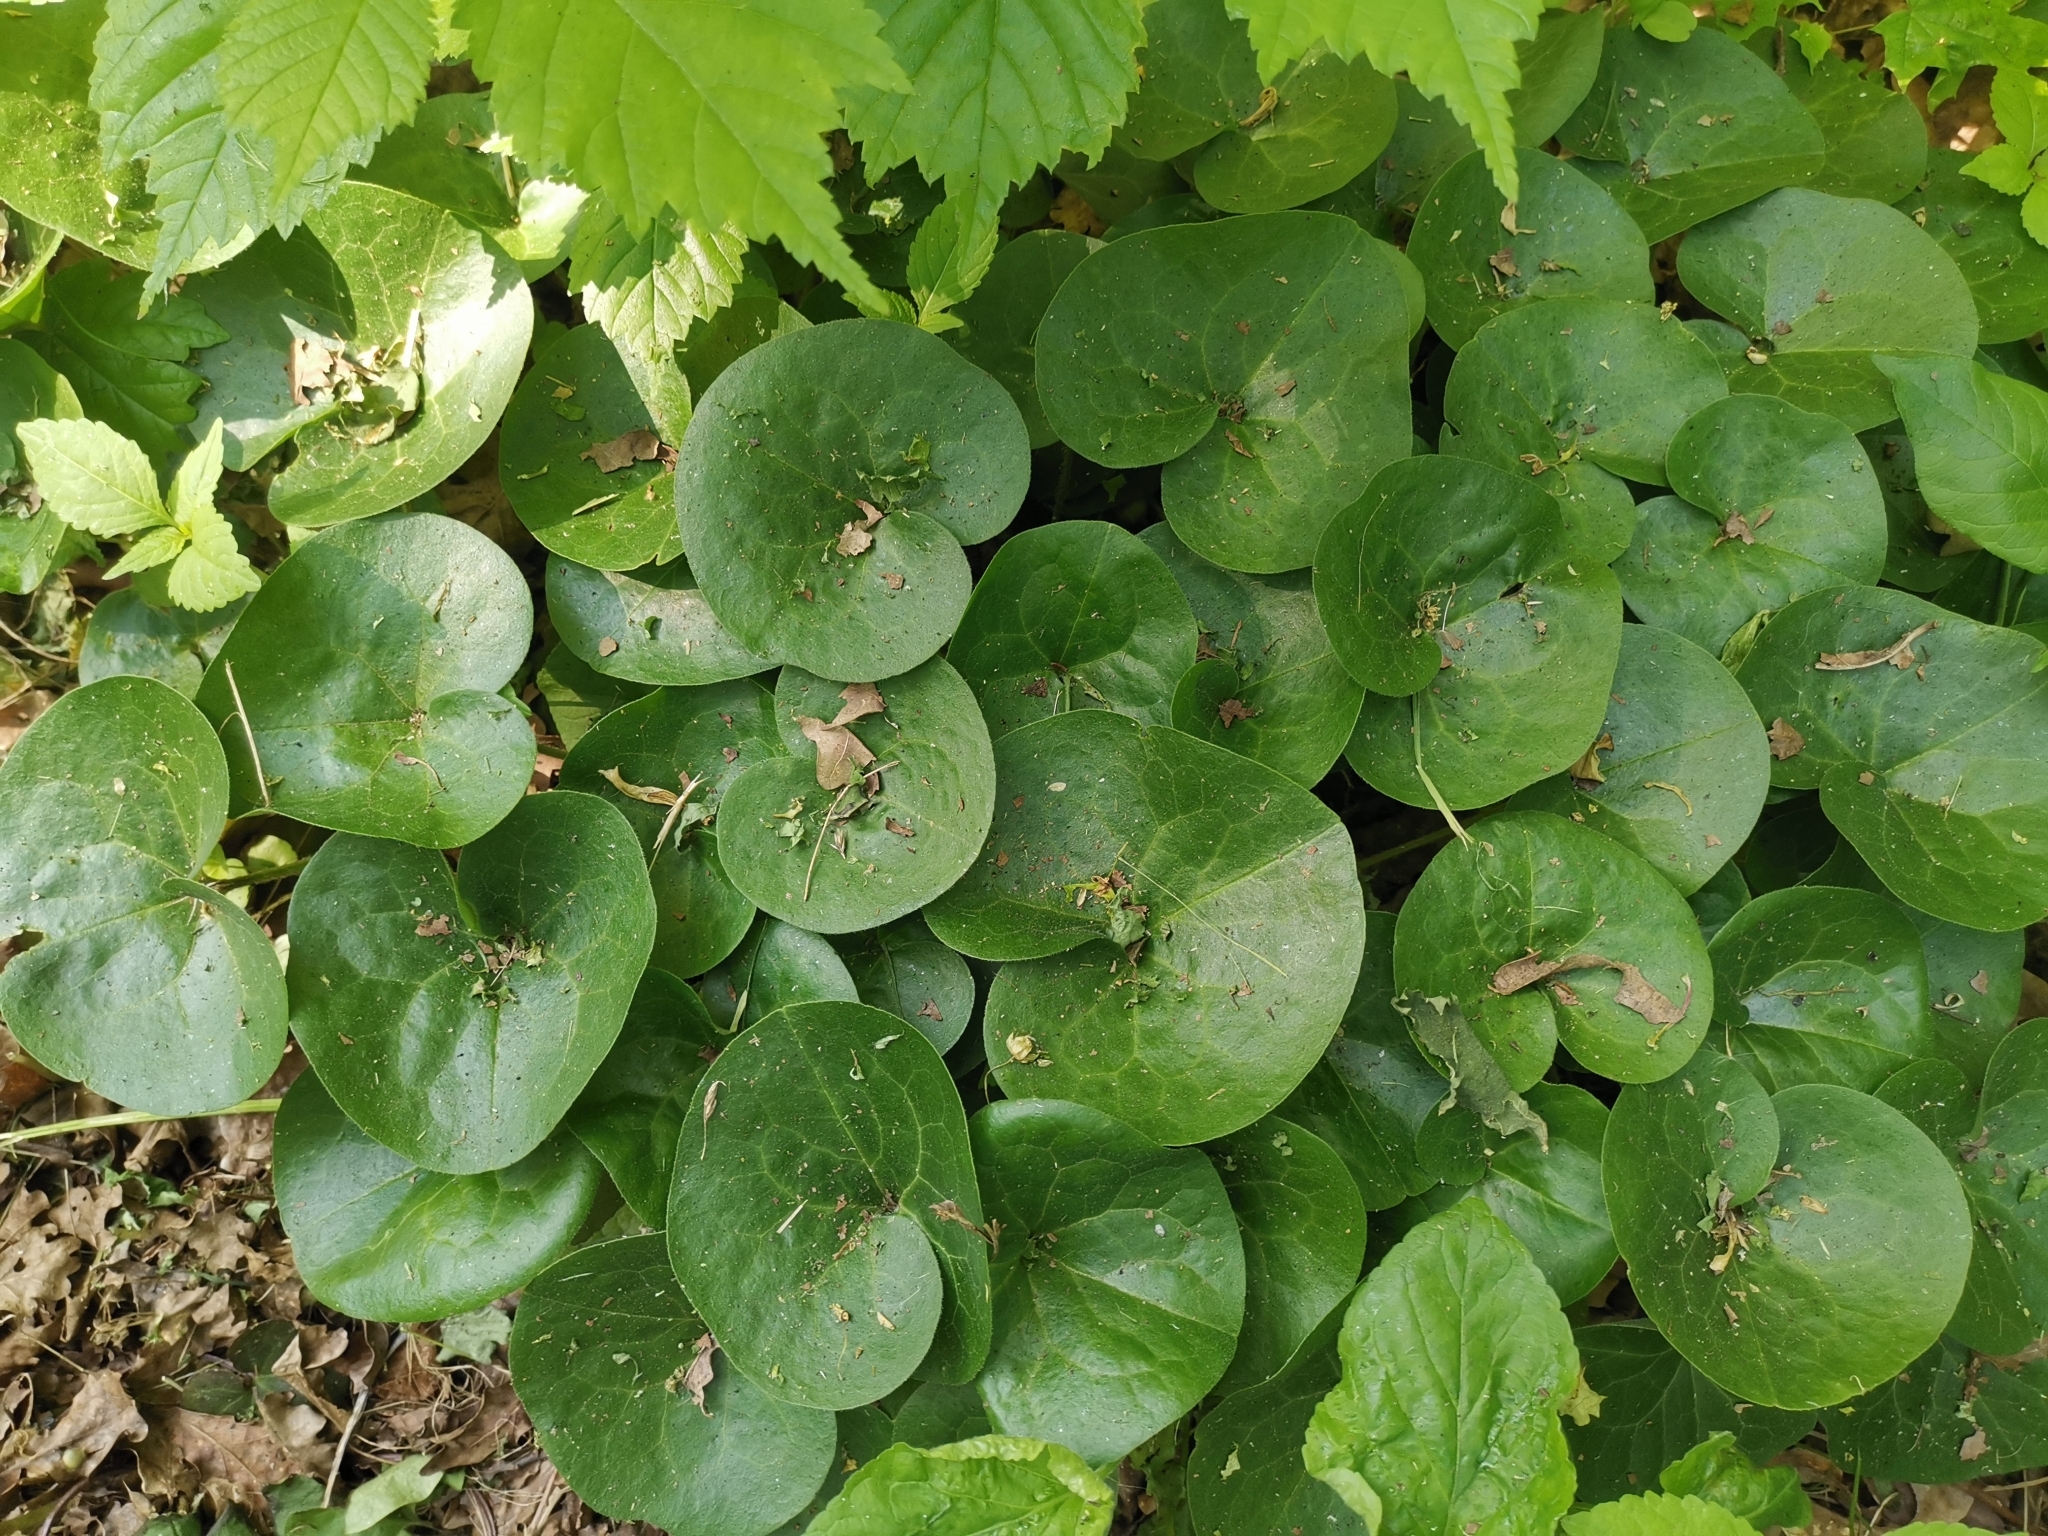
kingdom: Plantae
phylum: Tracheophyta
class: Magnoliopsida
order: Piperales
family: Aristolochiaceae
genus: Asarum
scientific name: Asarum europaeum
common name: Asarabacca
